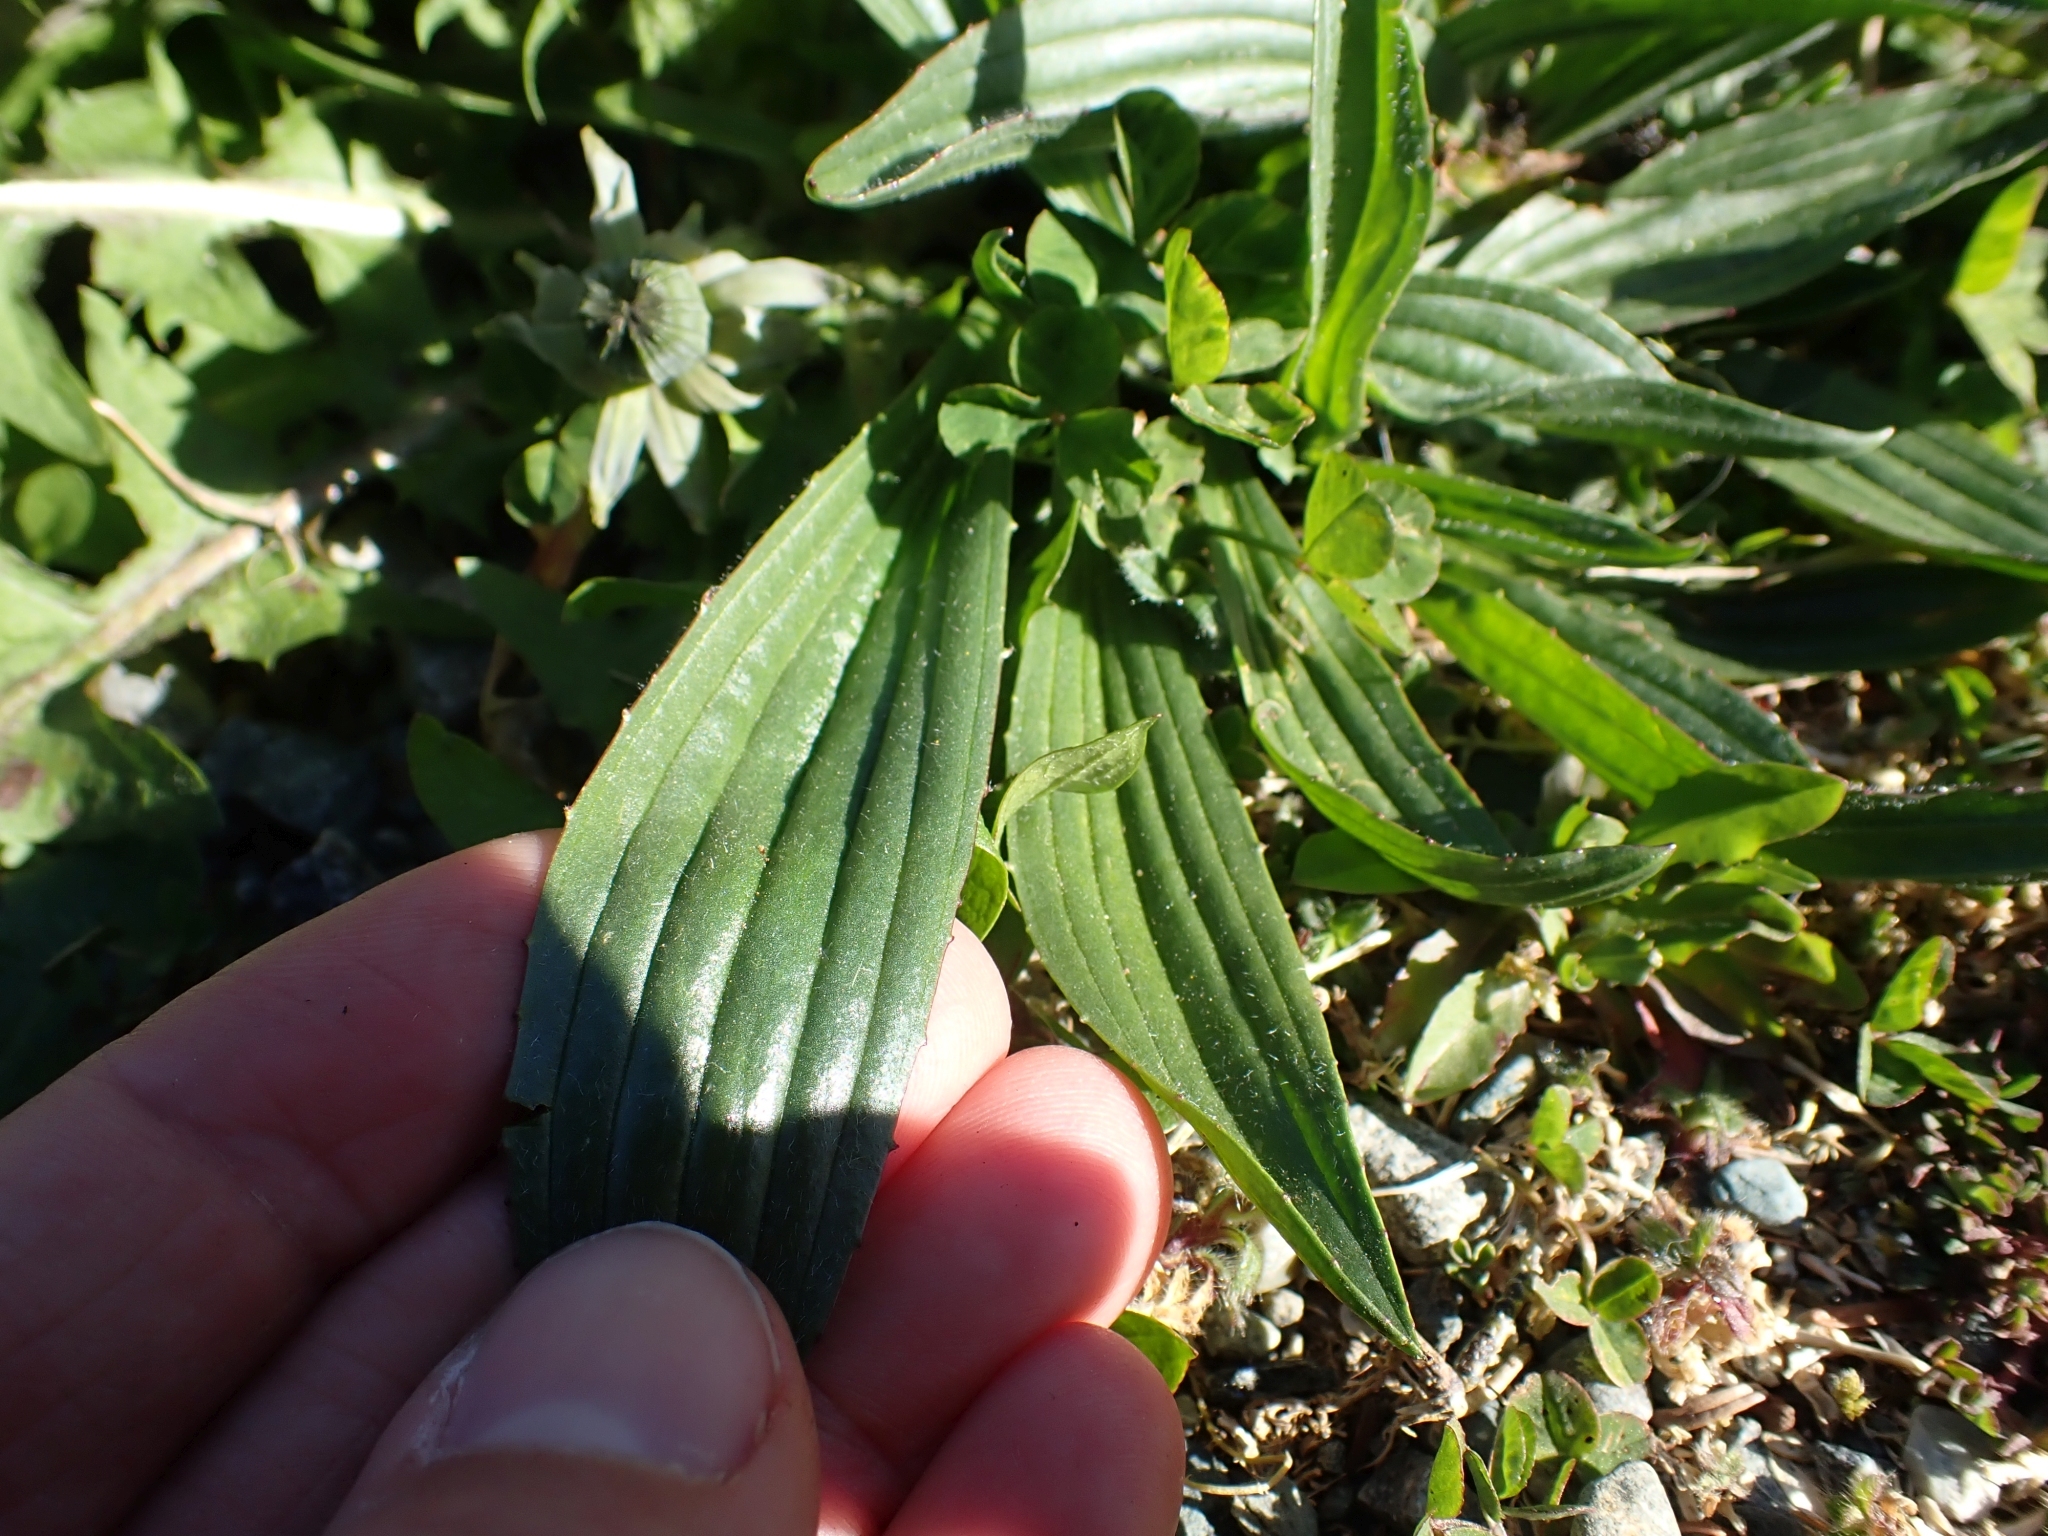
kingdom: Plantae
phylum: Tracheophyta
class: Magnoliopsida
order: Lamiales
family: Plantaginaceae
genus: Plantago
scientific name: Plantago lanceolata
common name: Ribwort plantain
